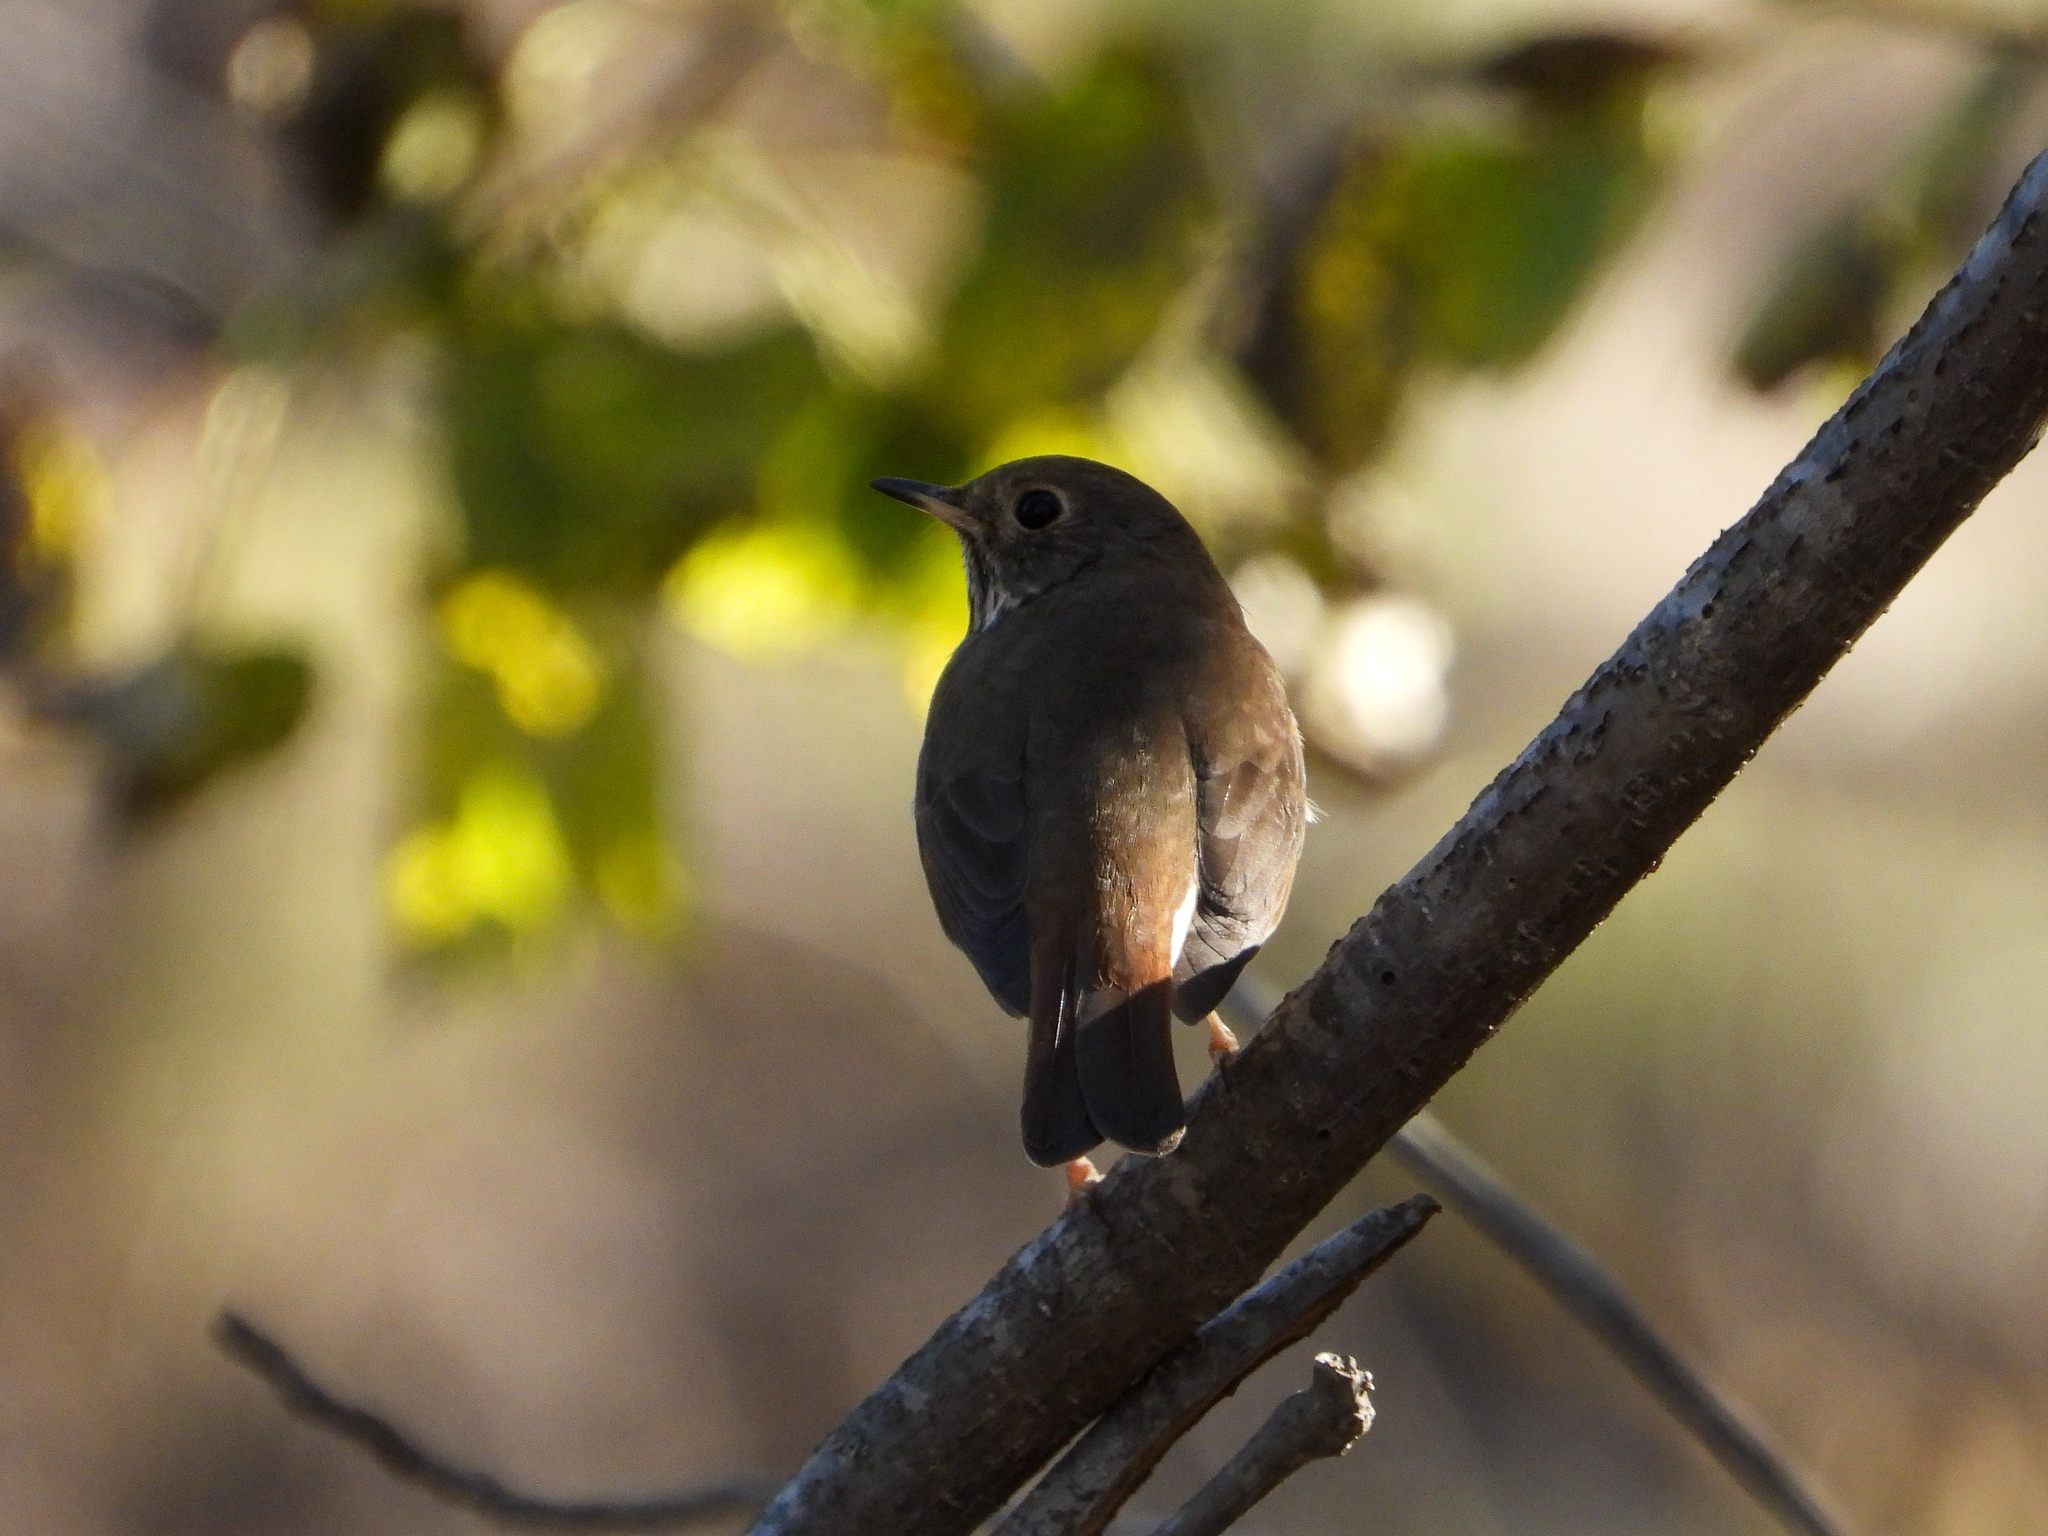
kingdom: Animalia
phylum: Chordata
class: Aves
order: Passeriformes
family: Turdidae
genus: Catharus
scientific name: Catharus guttatus
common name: Hermit thrush
